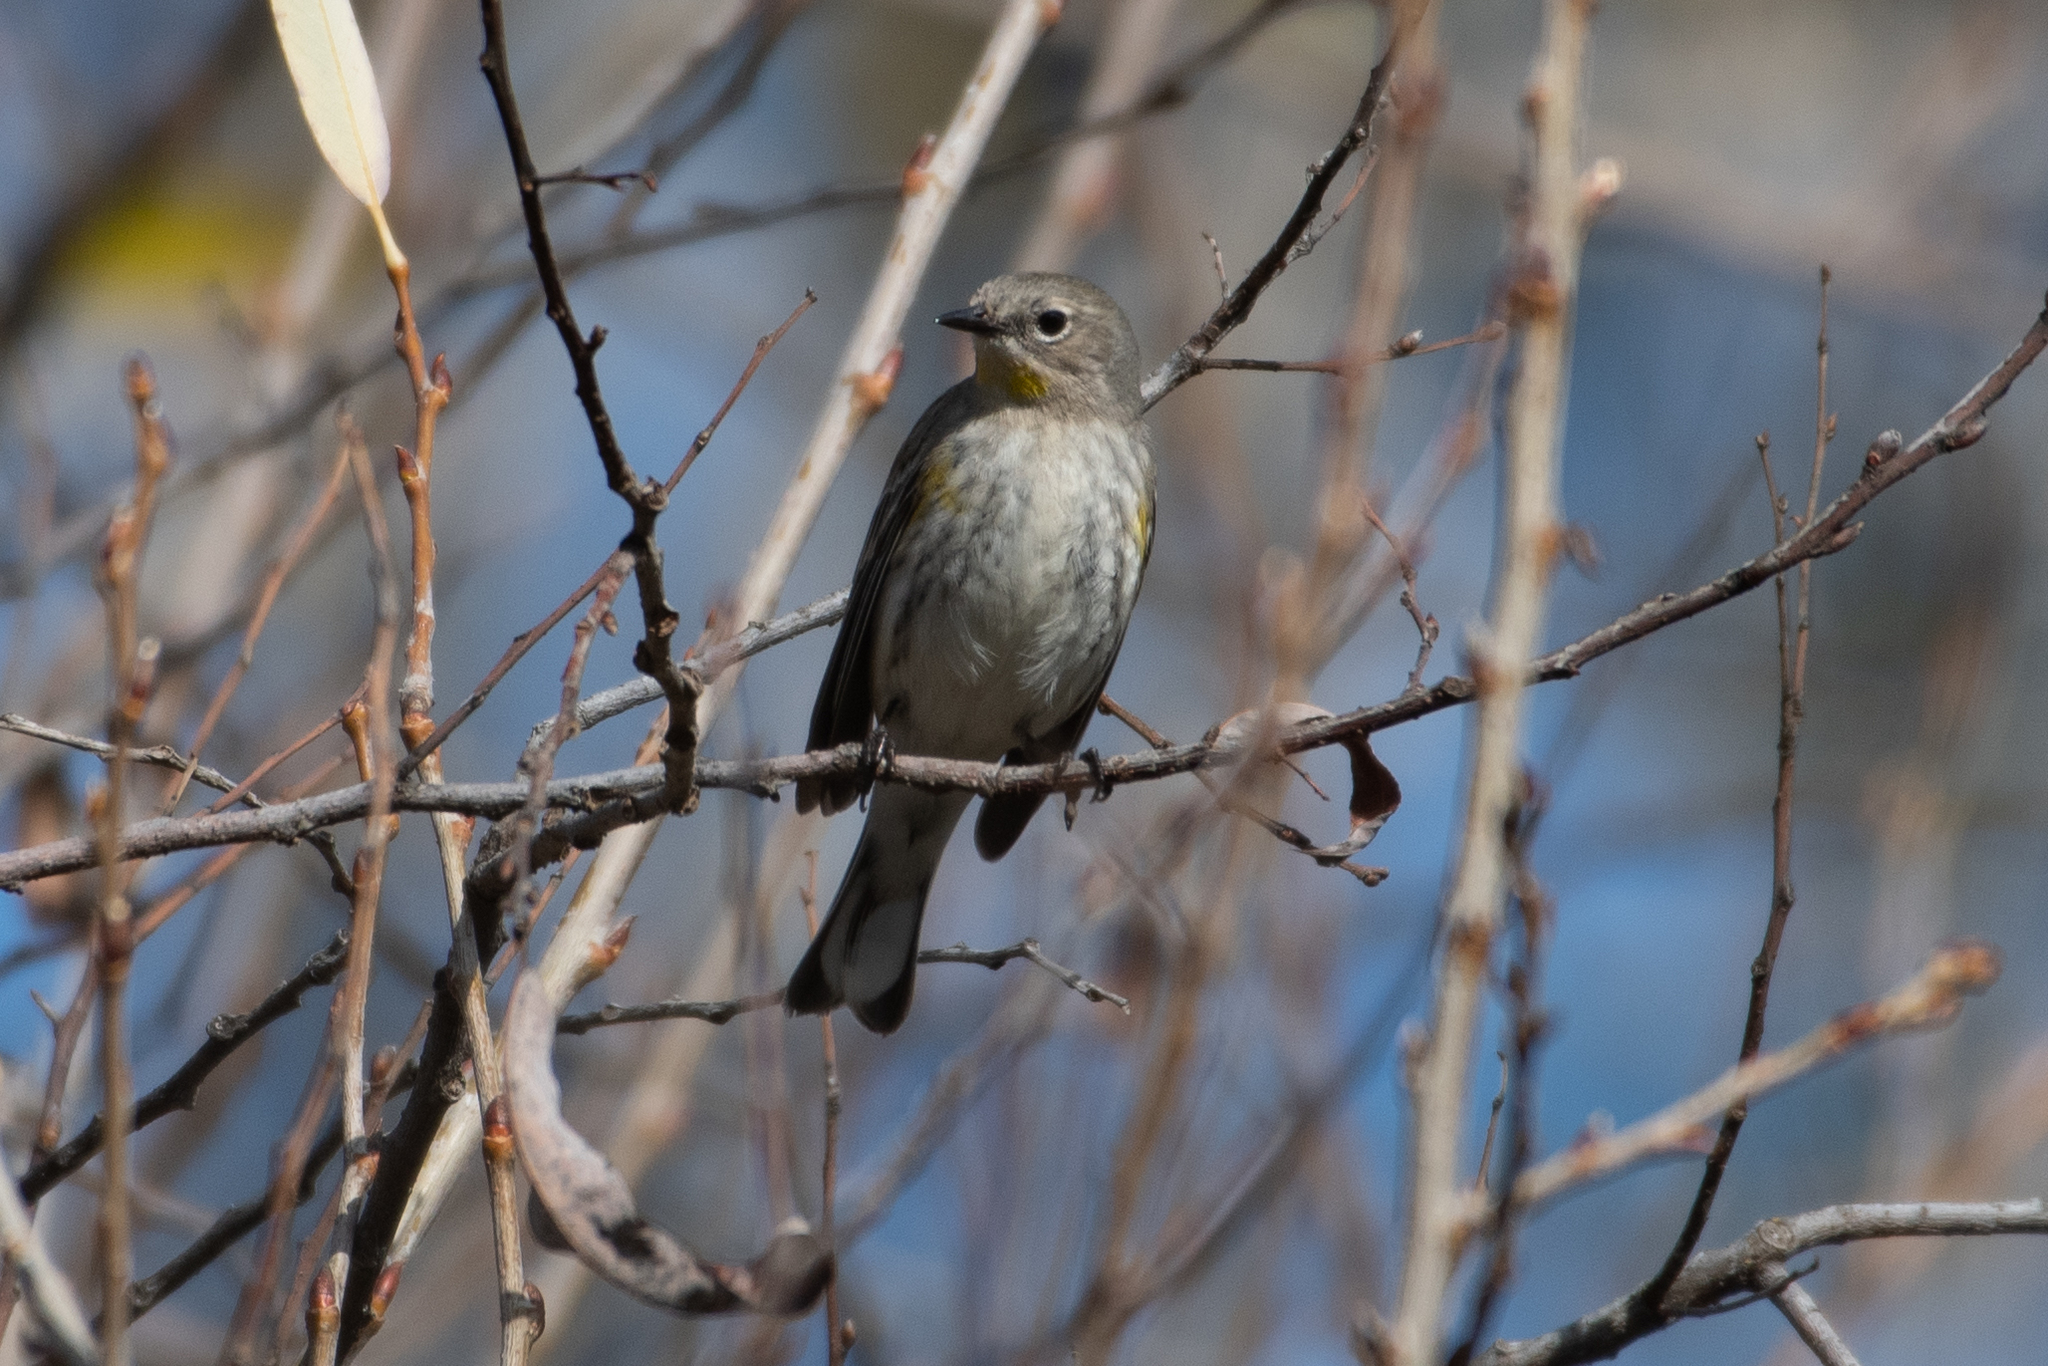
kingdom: Animalia
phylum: Chordata
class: Aves
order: Passeriformes
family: Parulidae
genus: Setophaga
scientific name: Setophaga coronata
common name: Myrtle warbler
